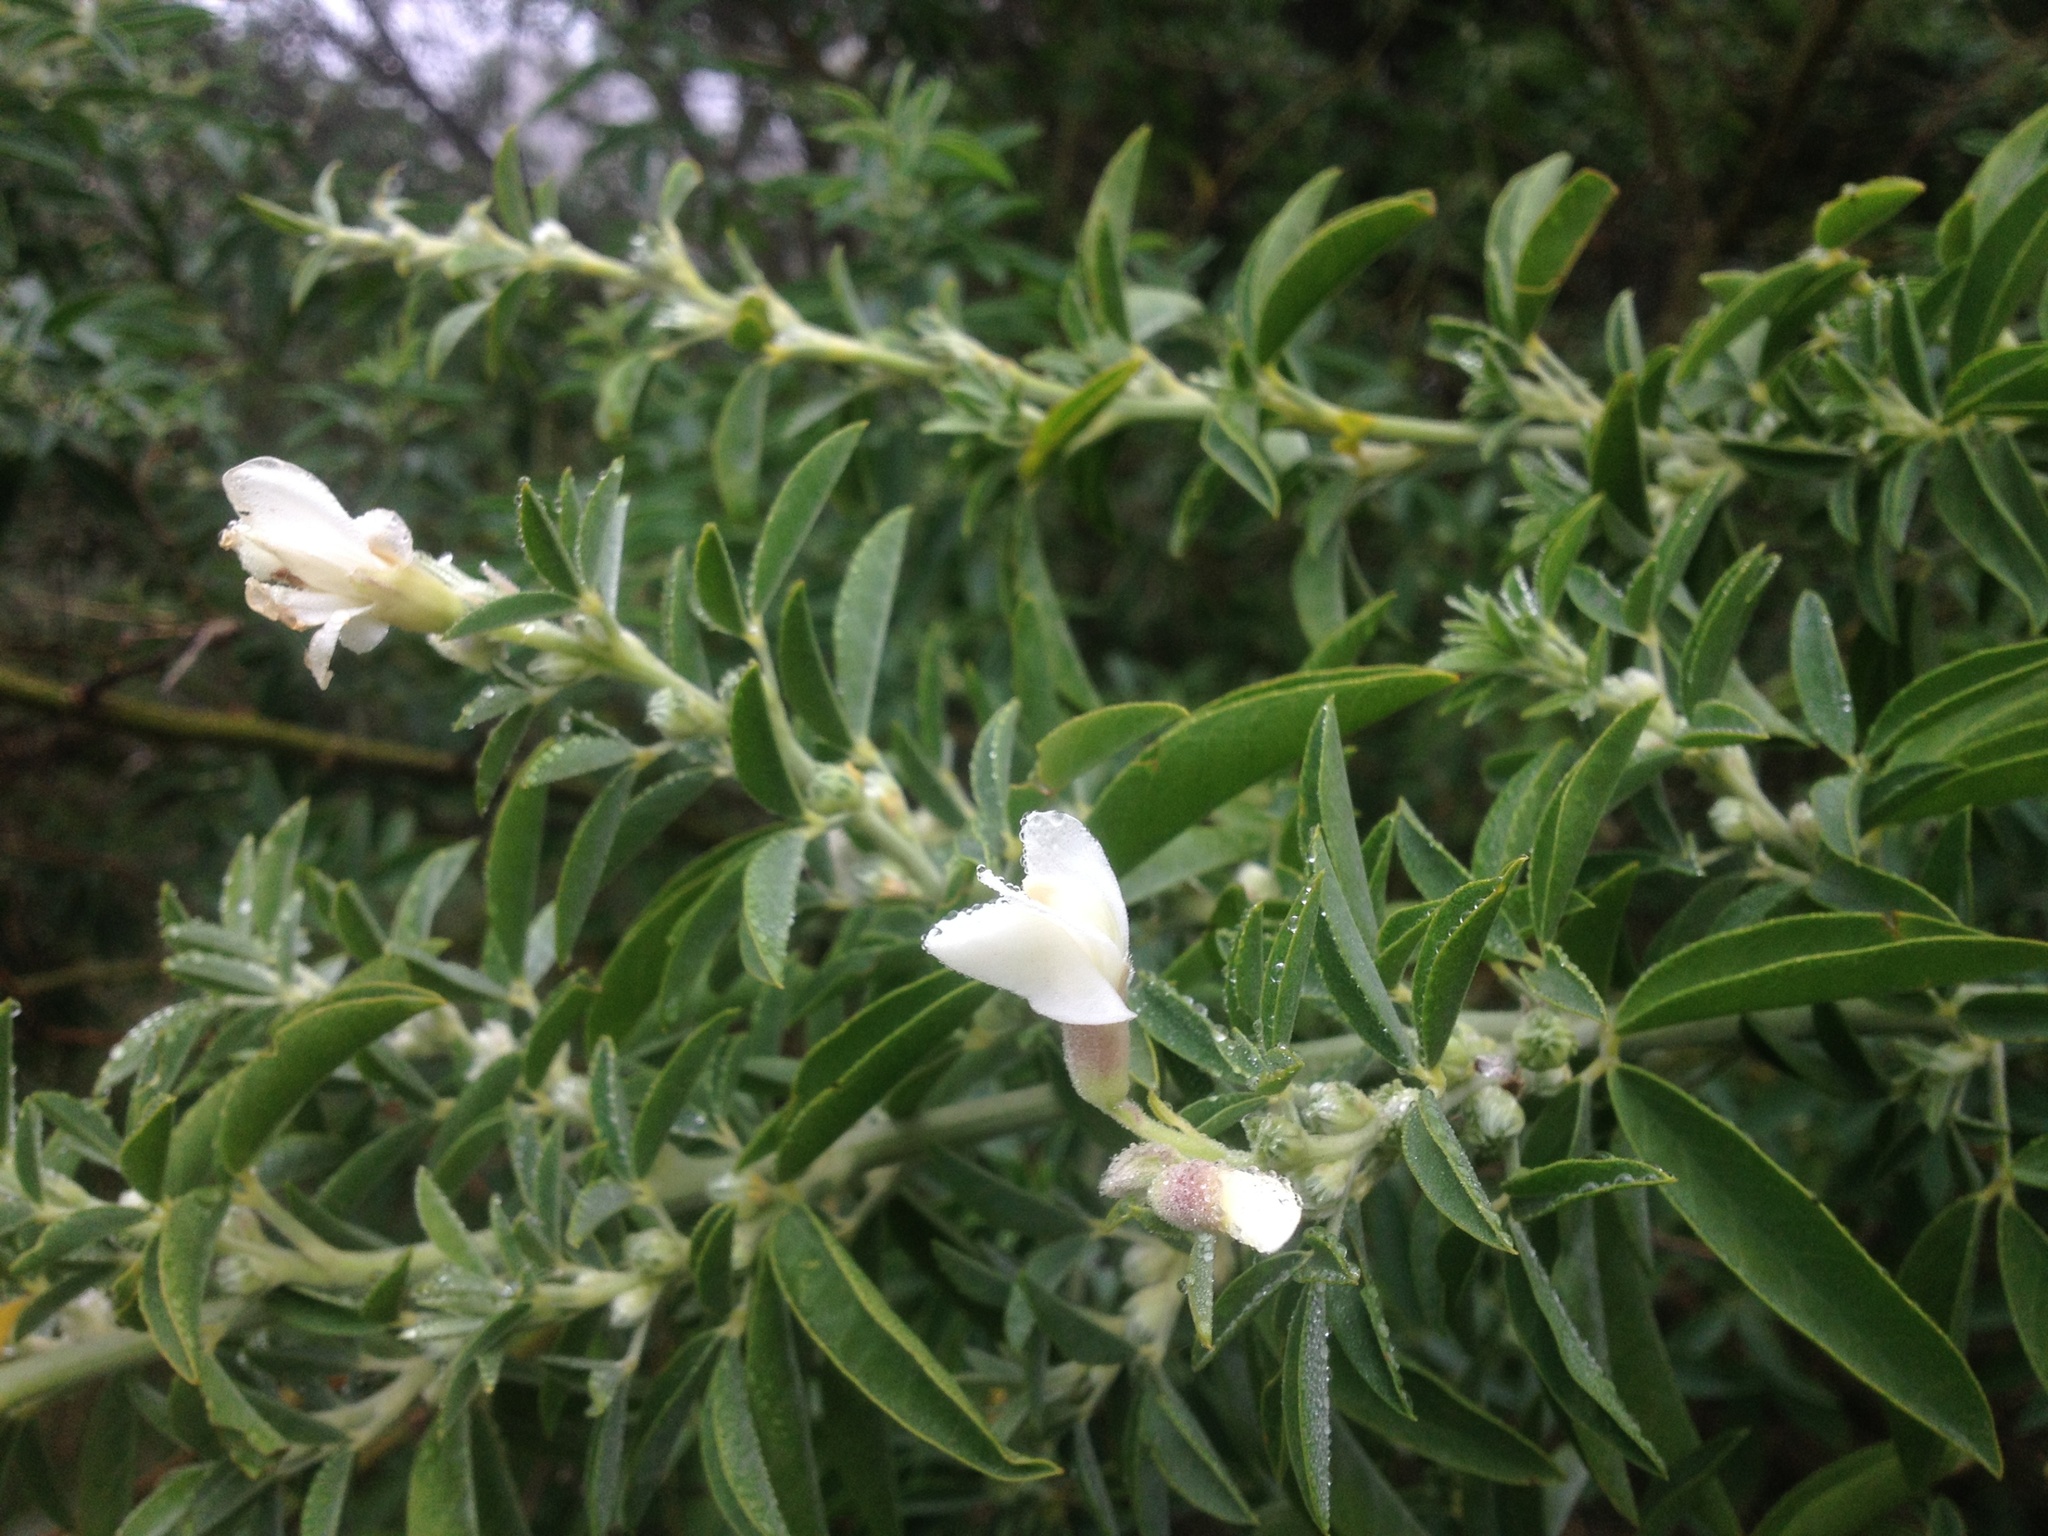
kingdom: Plantae
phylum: Tracheophyta
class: Magnoliopsida
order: Fabales
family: Fabaceae
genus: Chamaecytisus
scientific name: Chamaecytisus prolifer
